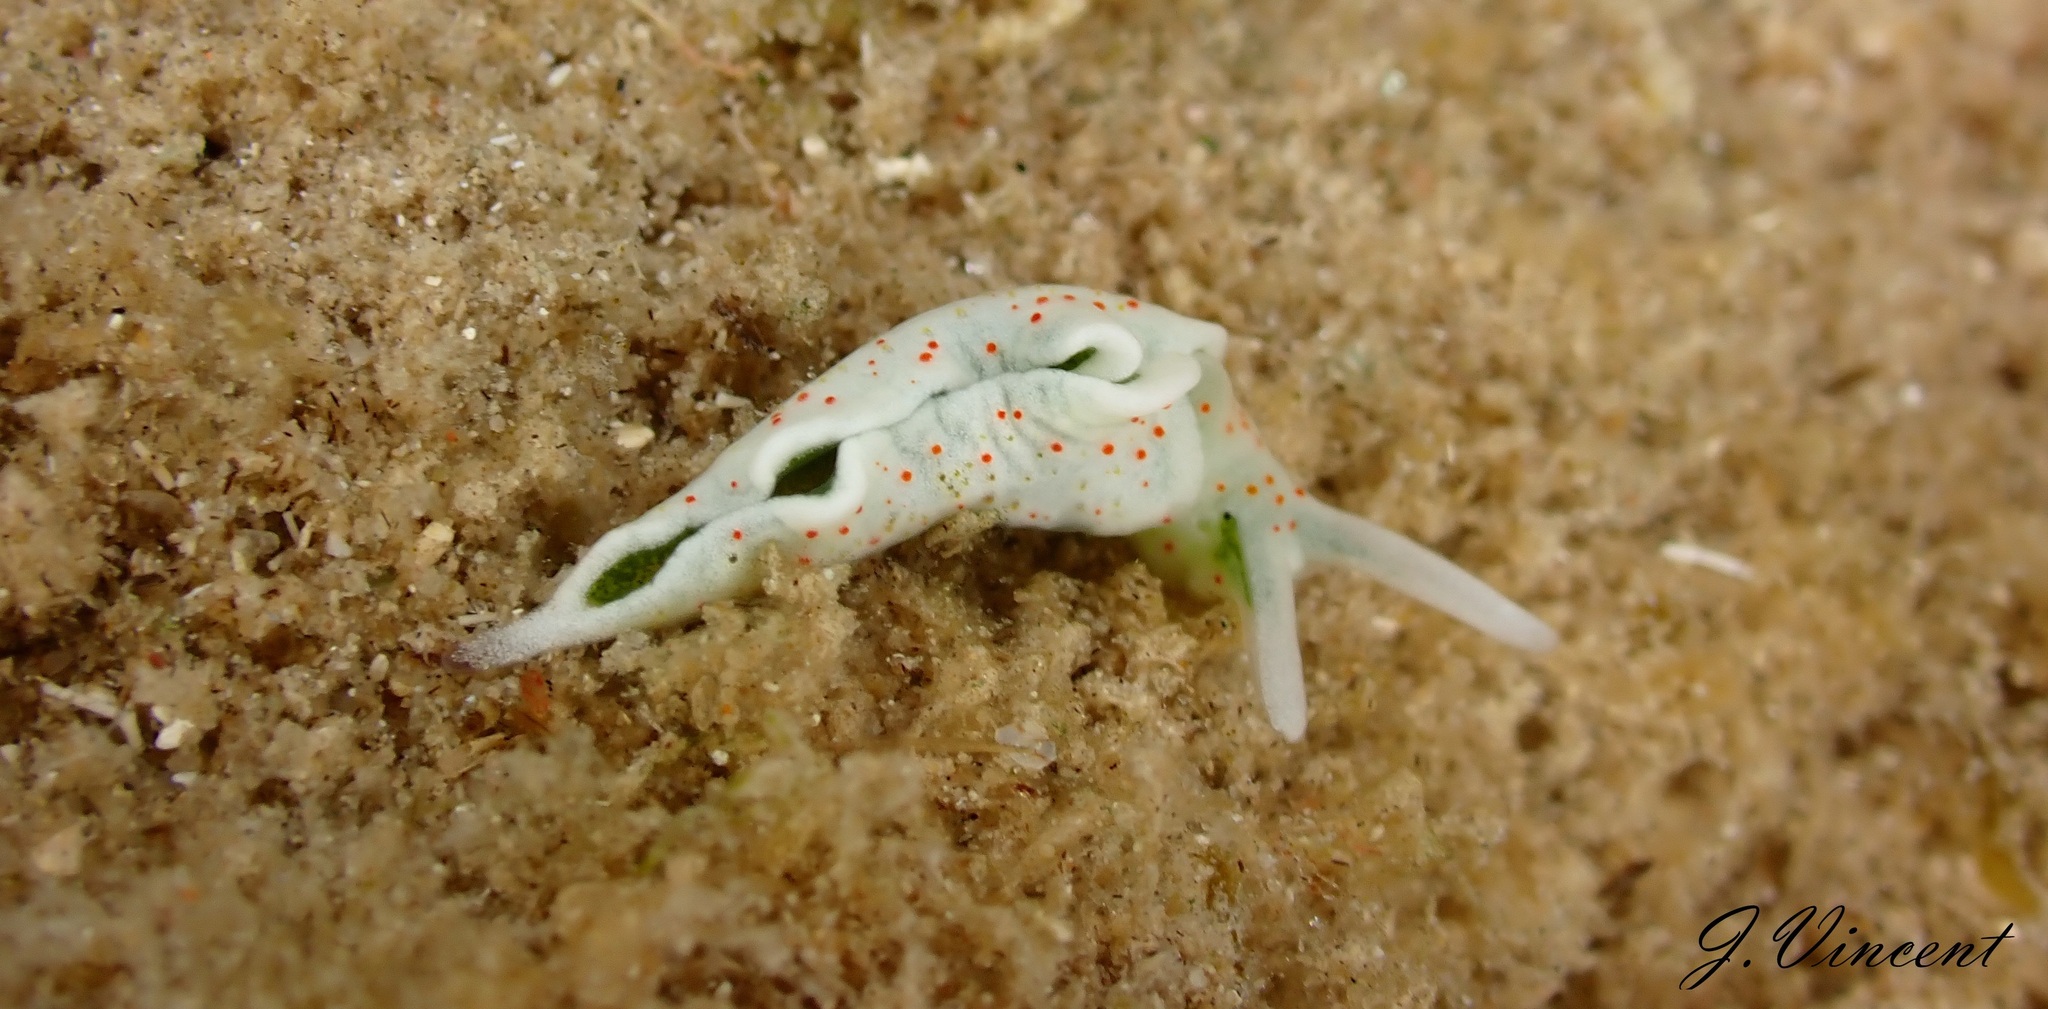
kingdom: Animalia
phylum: Mollusca
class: Gastropoda
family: Plakobranchidae
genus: Elysia
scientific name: Elysia timida
